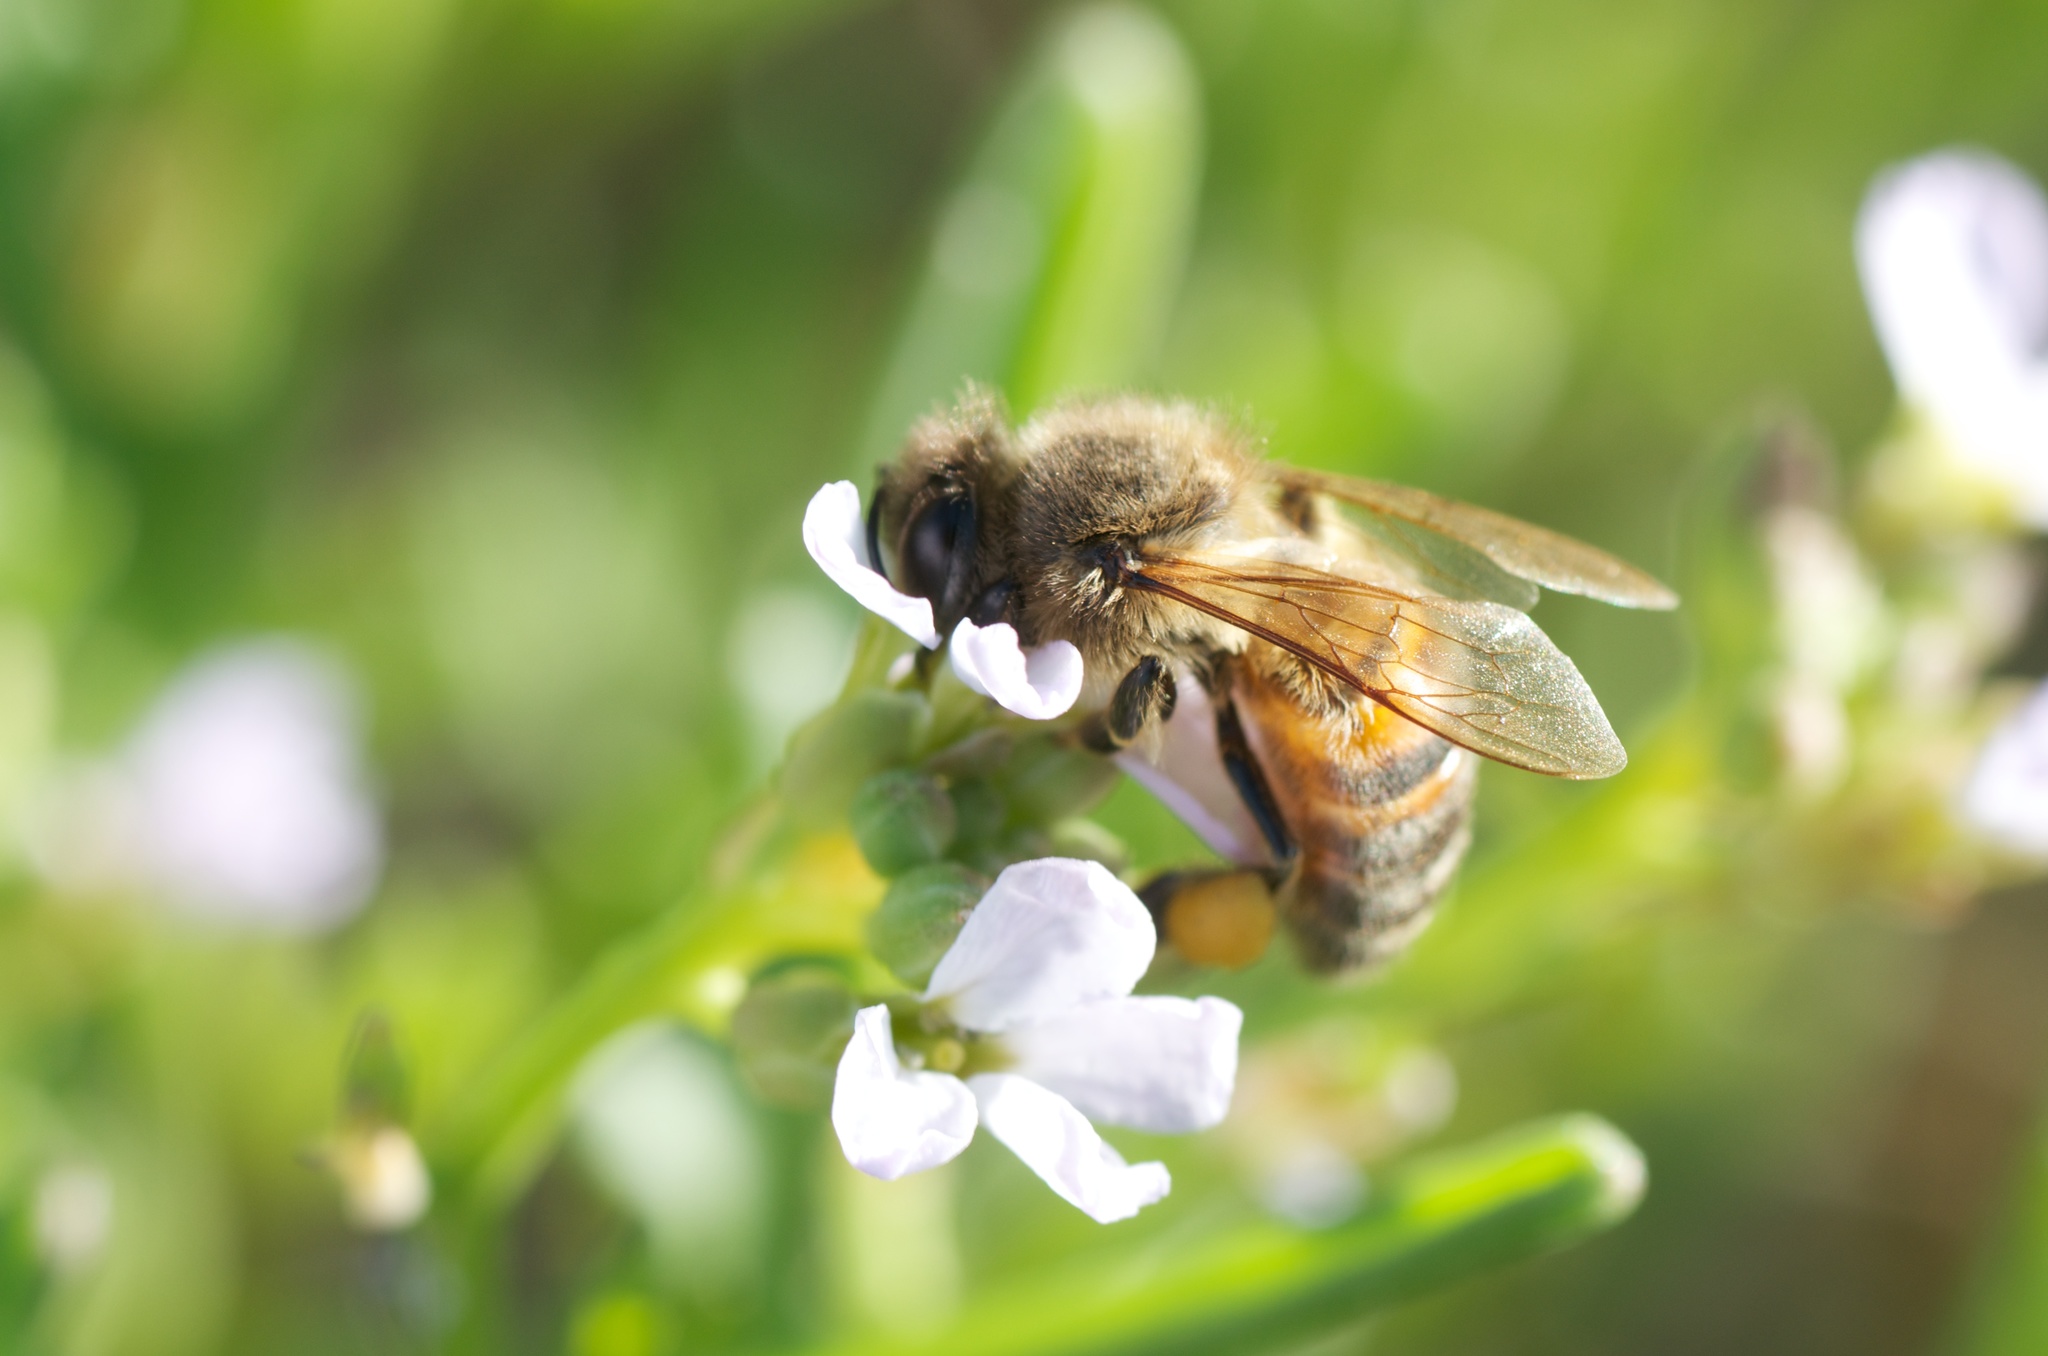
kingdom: Animalia
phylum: Arthropoda
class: Insecta
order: Hymenoptera
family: Apidae
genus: Apis
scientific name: Apis mellifera
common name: Honey bee
